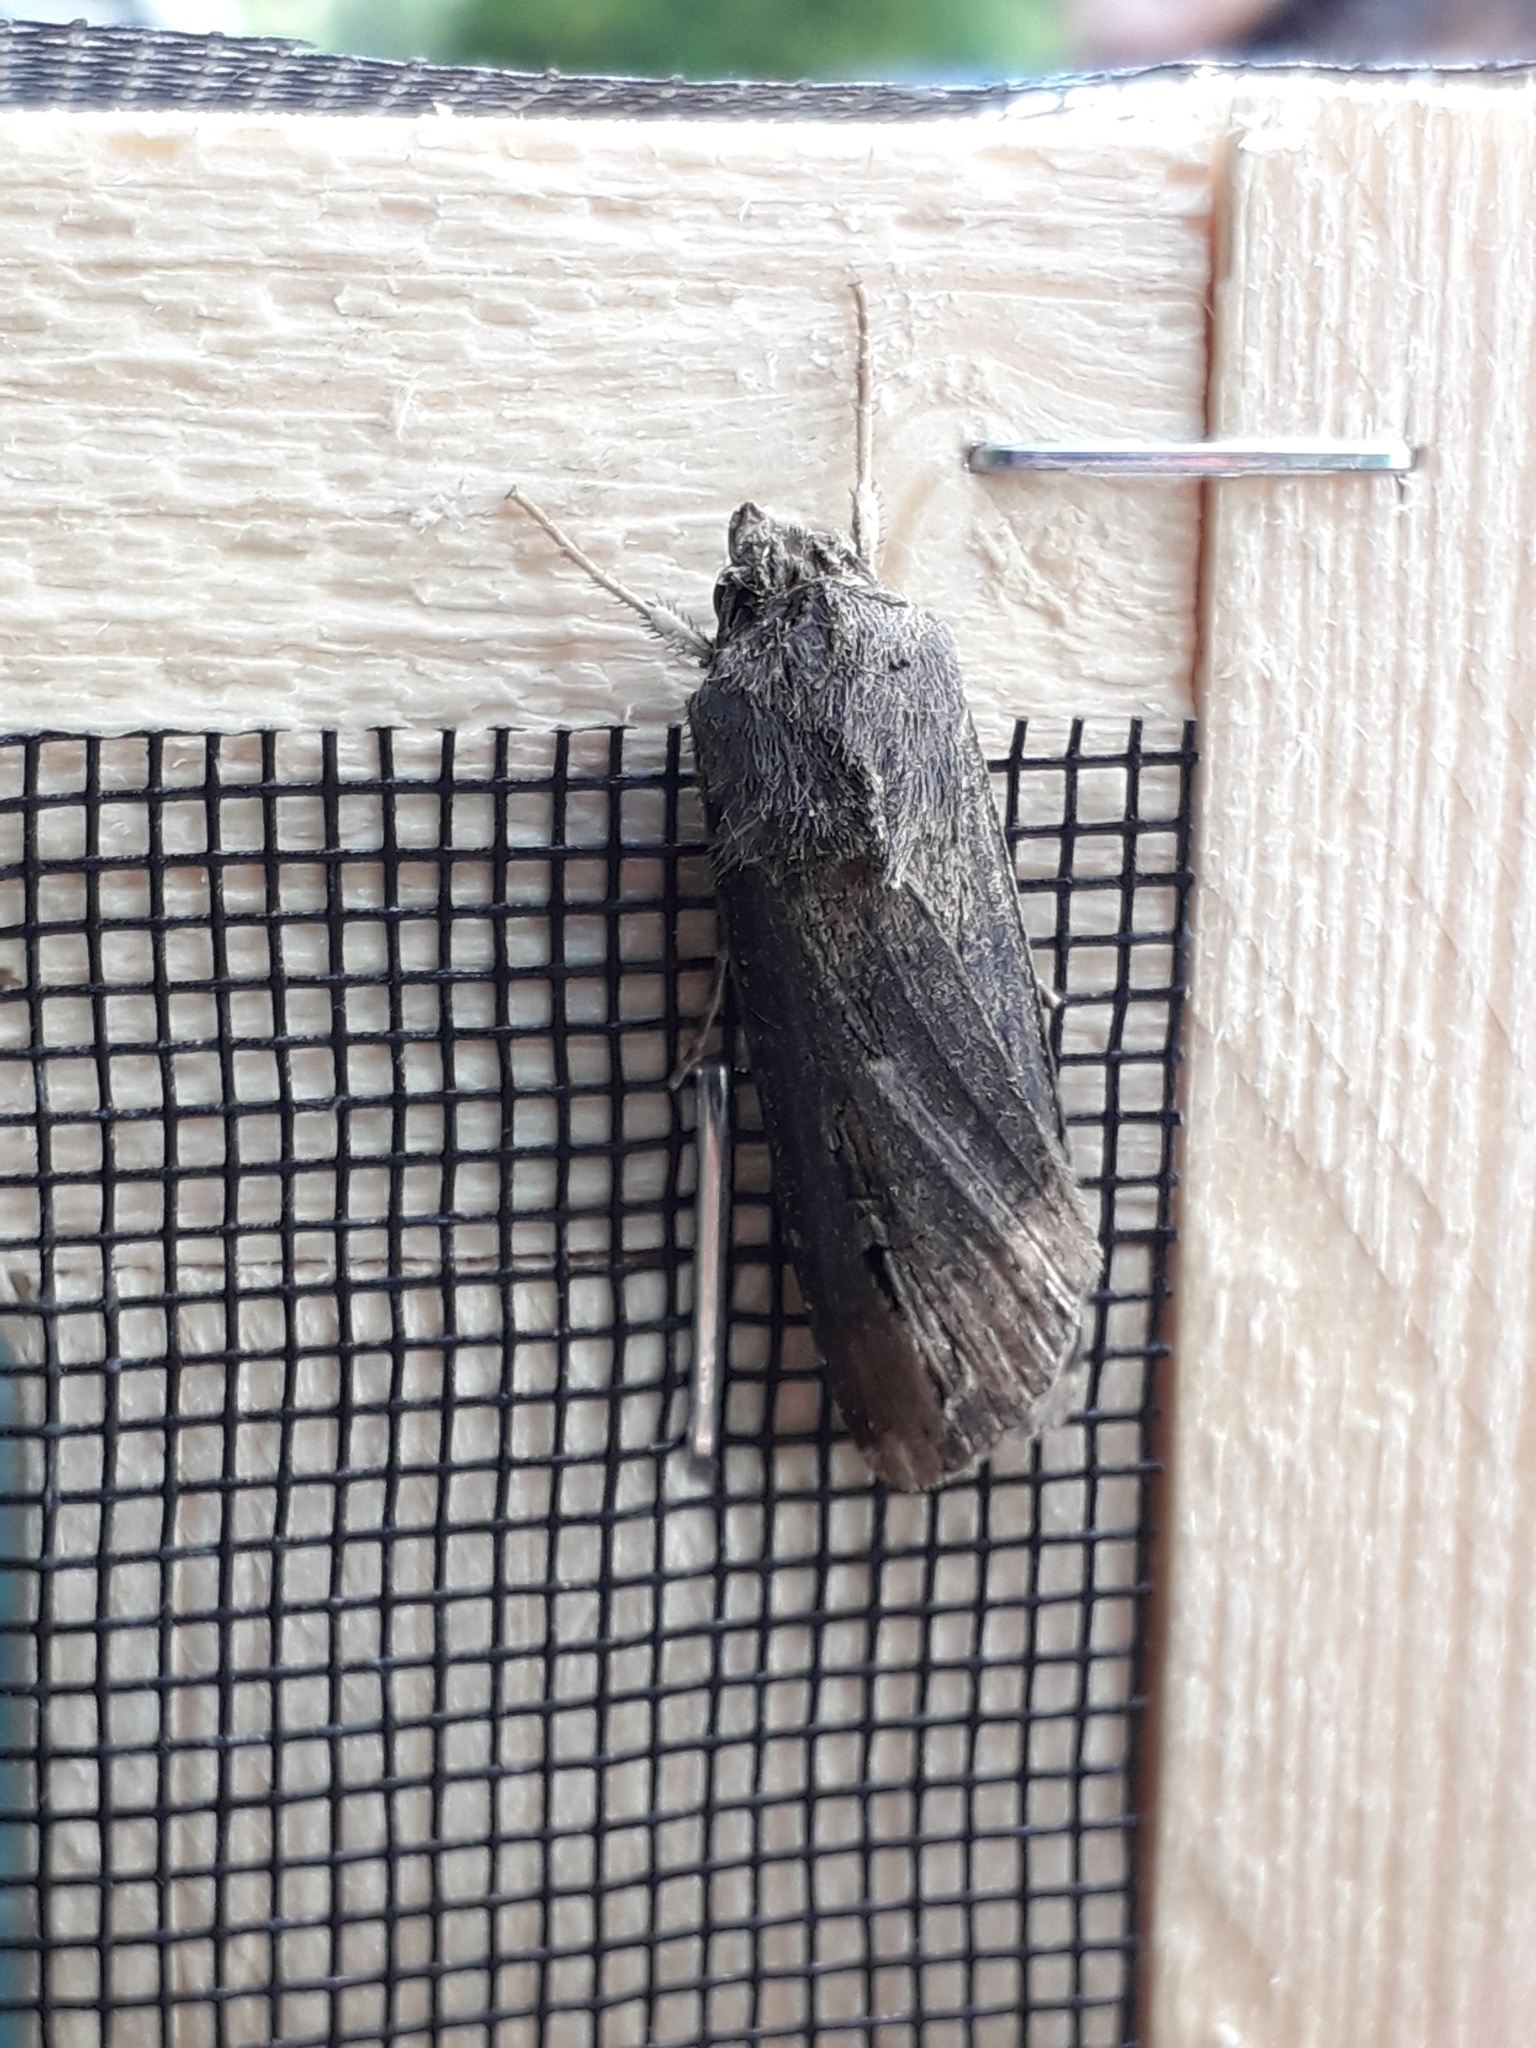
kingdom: Animalia
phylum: Arthropoda
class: Insecta
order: Lepidoptera
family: Noctuidae
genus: Agrotis
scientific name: Agrotis ipsilon
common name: Dark sword-grass
